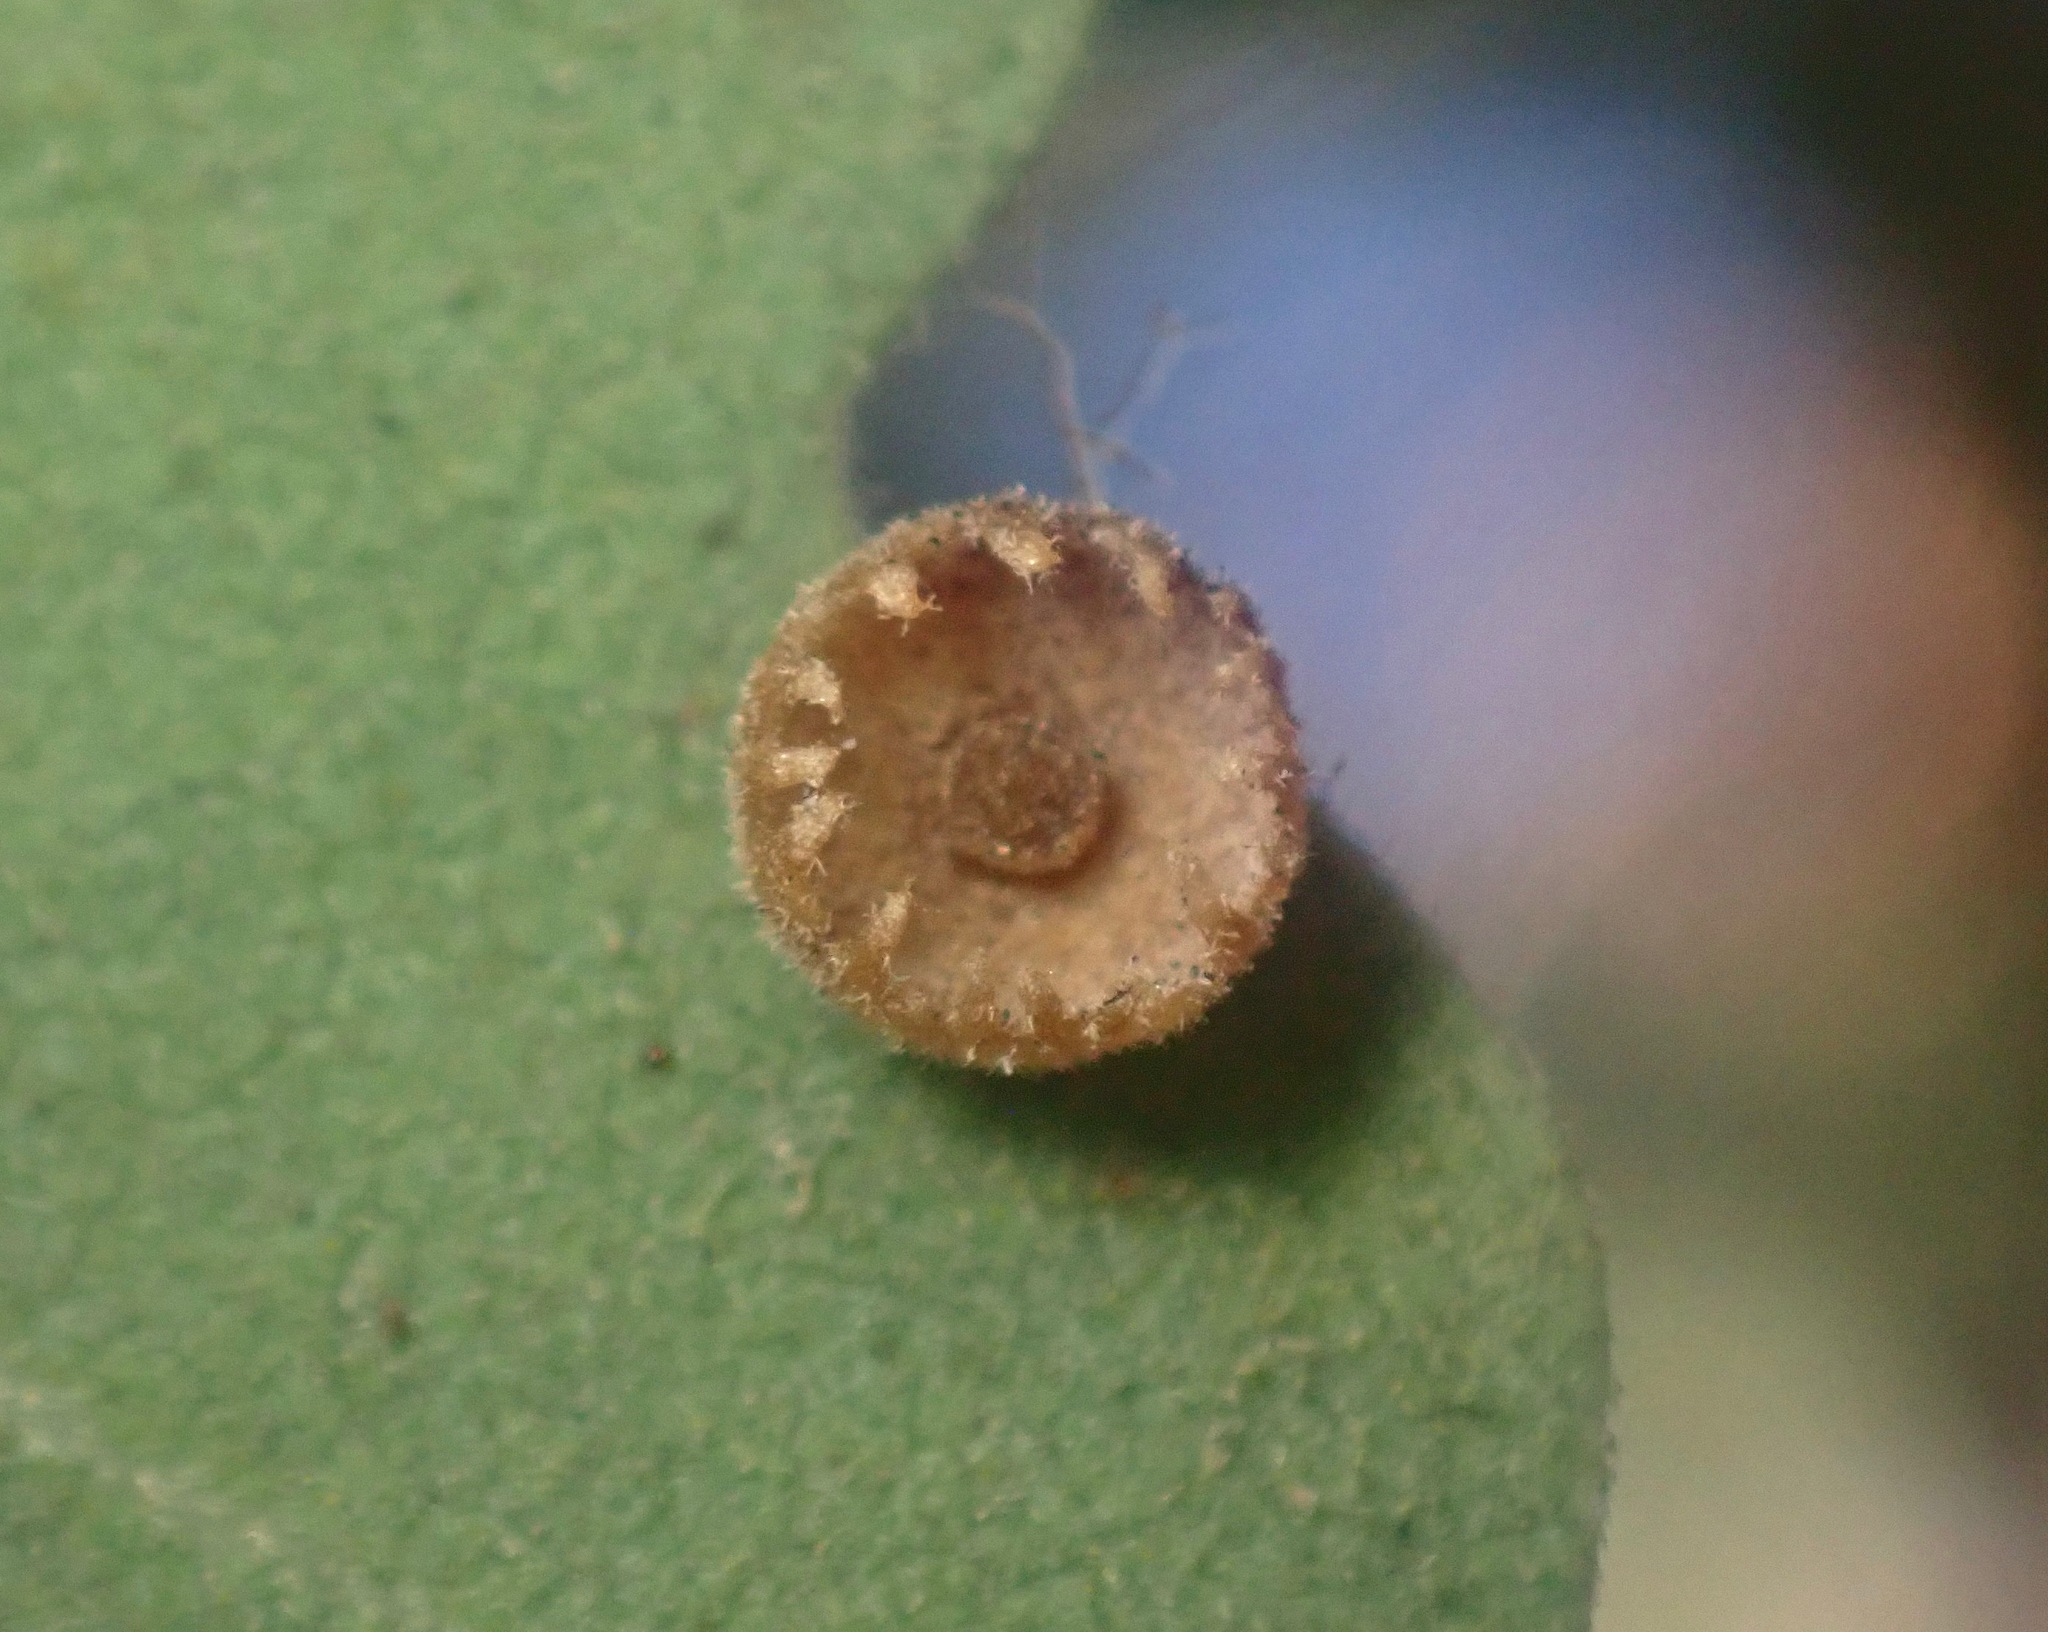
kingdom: Animalia
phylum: Arthropoda
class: Insecta
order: Hymenoptera
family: Cynipidae
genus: Andricus
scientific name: Andricus
